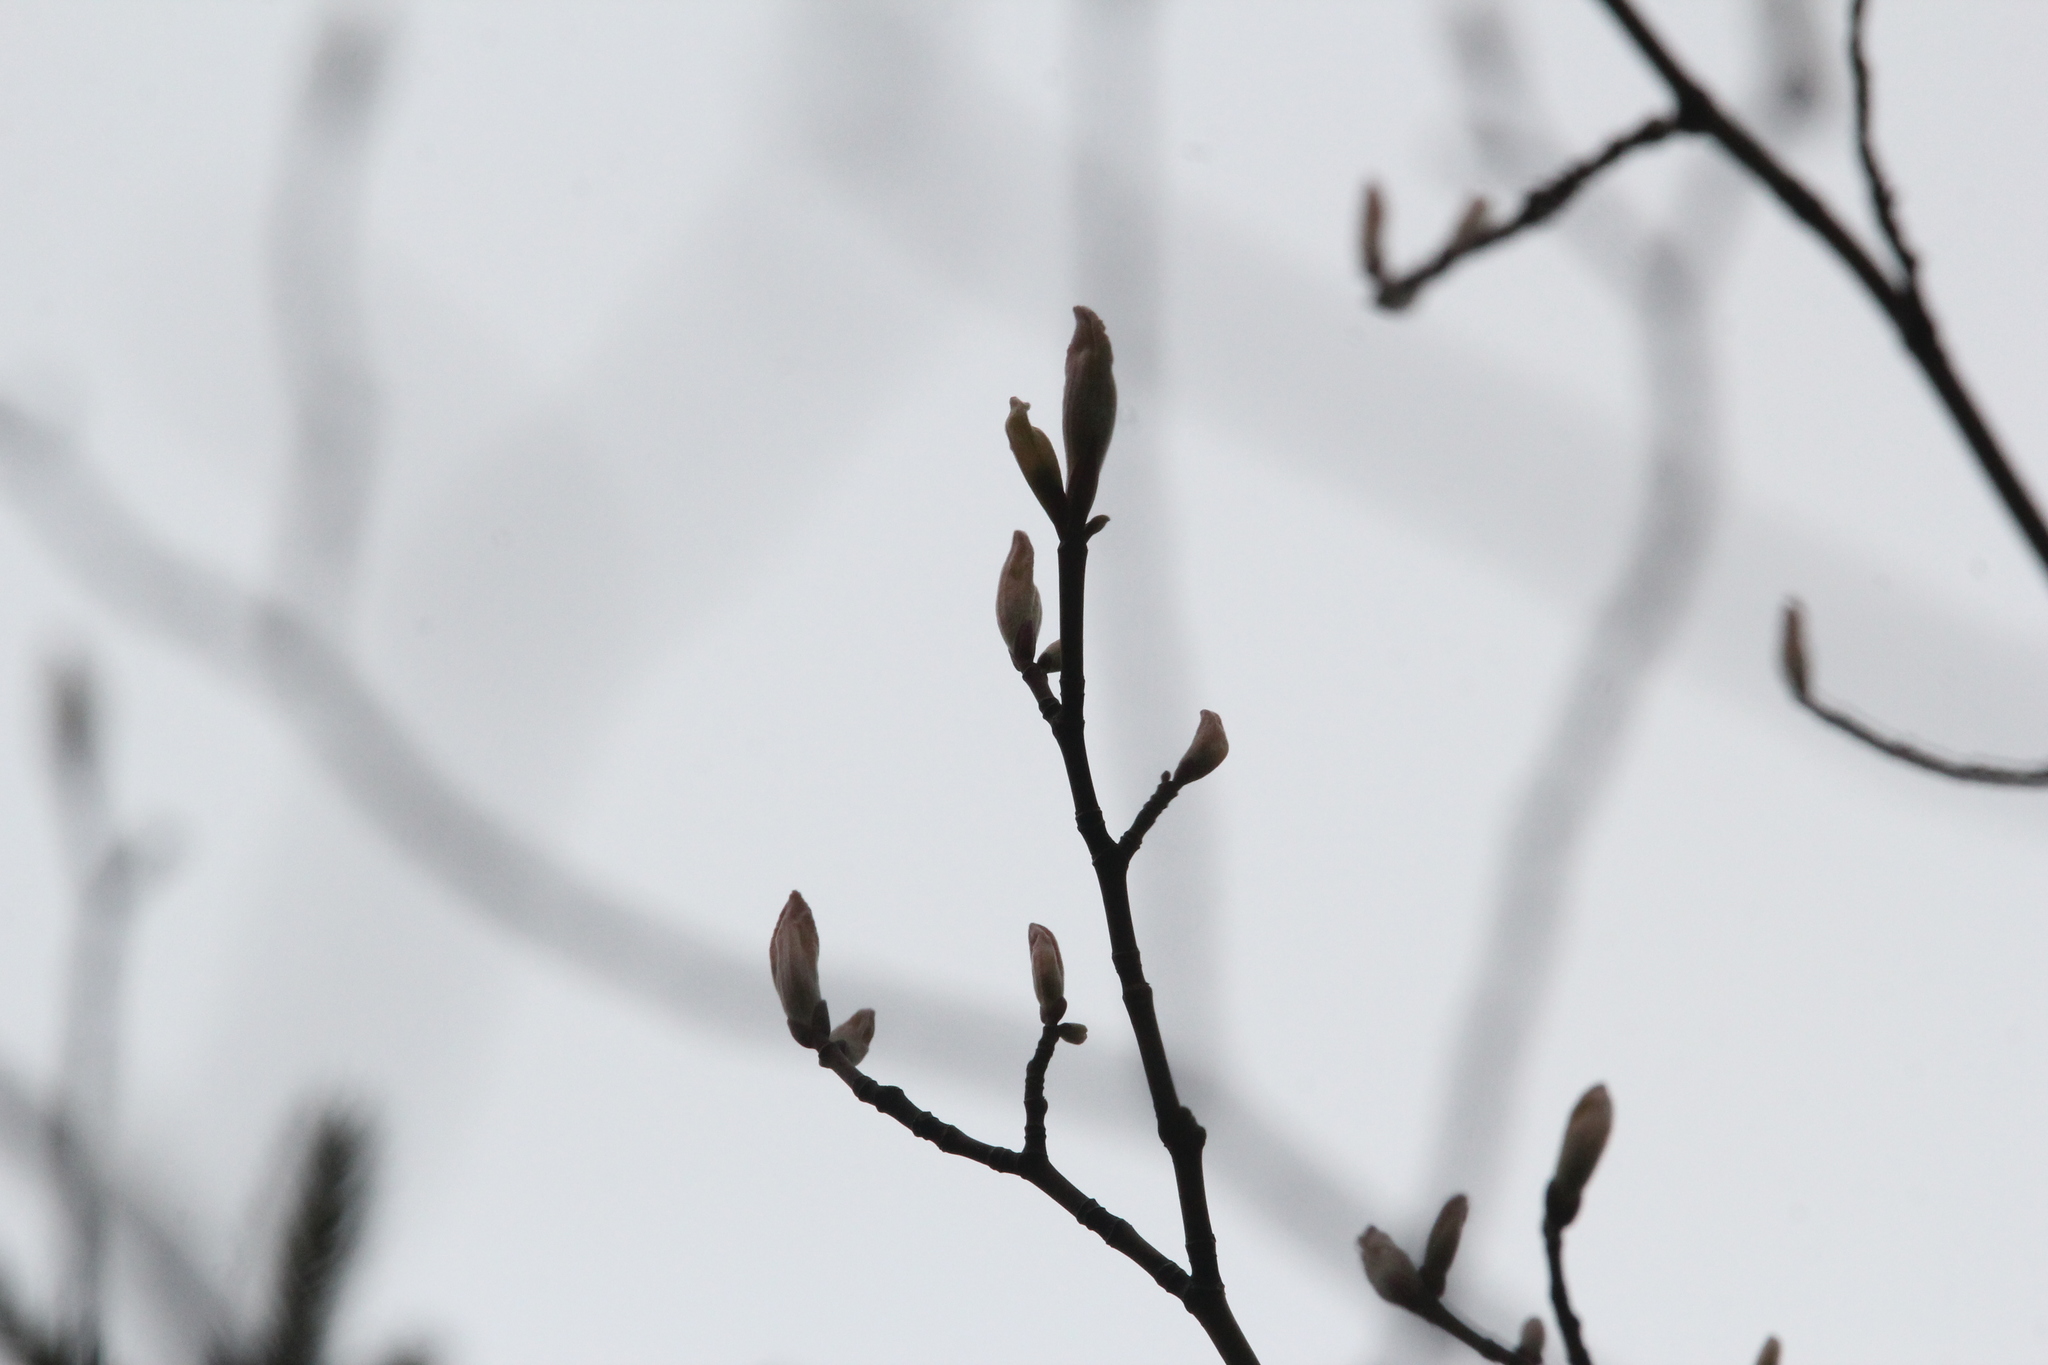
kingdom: Plantae
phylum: Tracheophyta
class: Magnoliopsida
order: Sapindales
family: Sapindaceae
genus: Acer
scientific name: Acer pensylvanicum
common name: Moosewood
